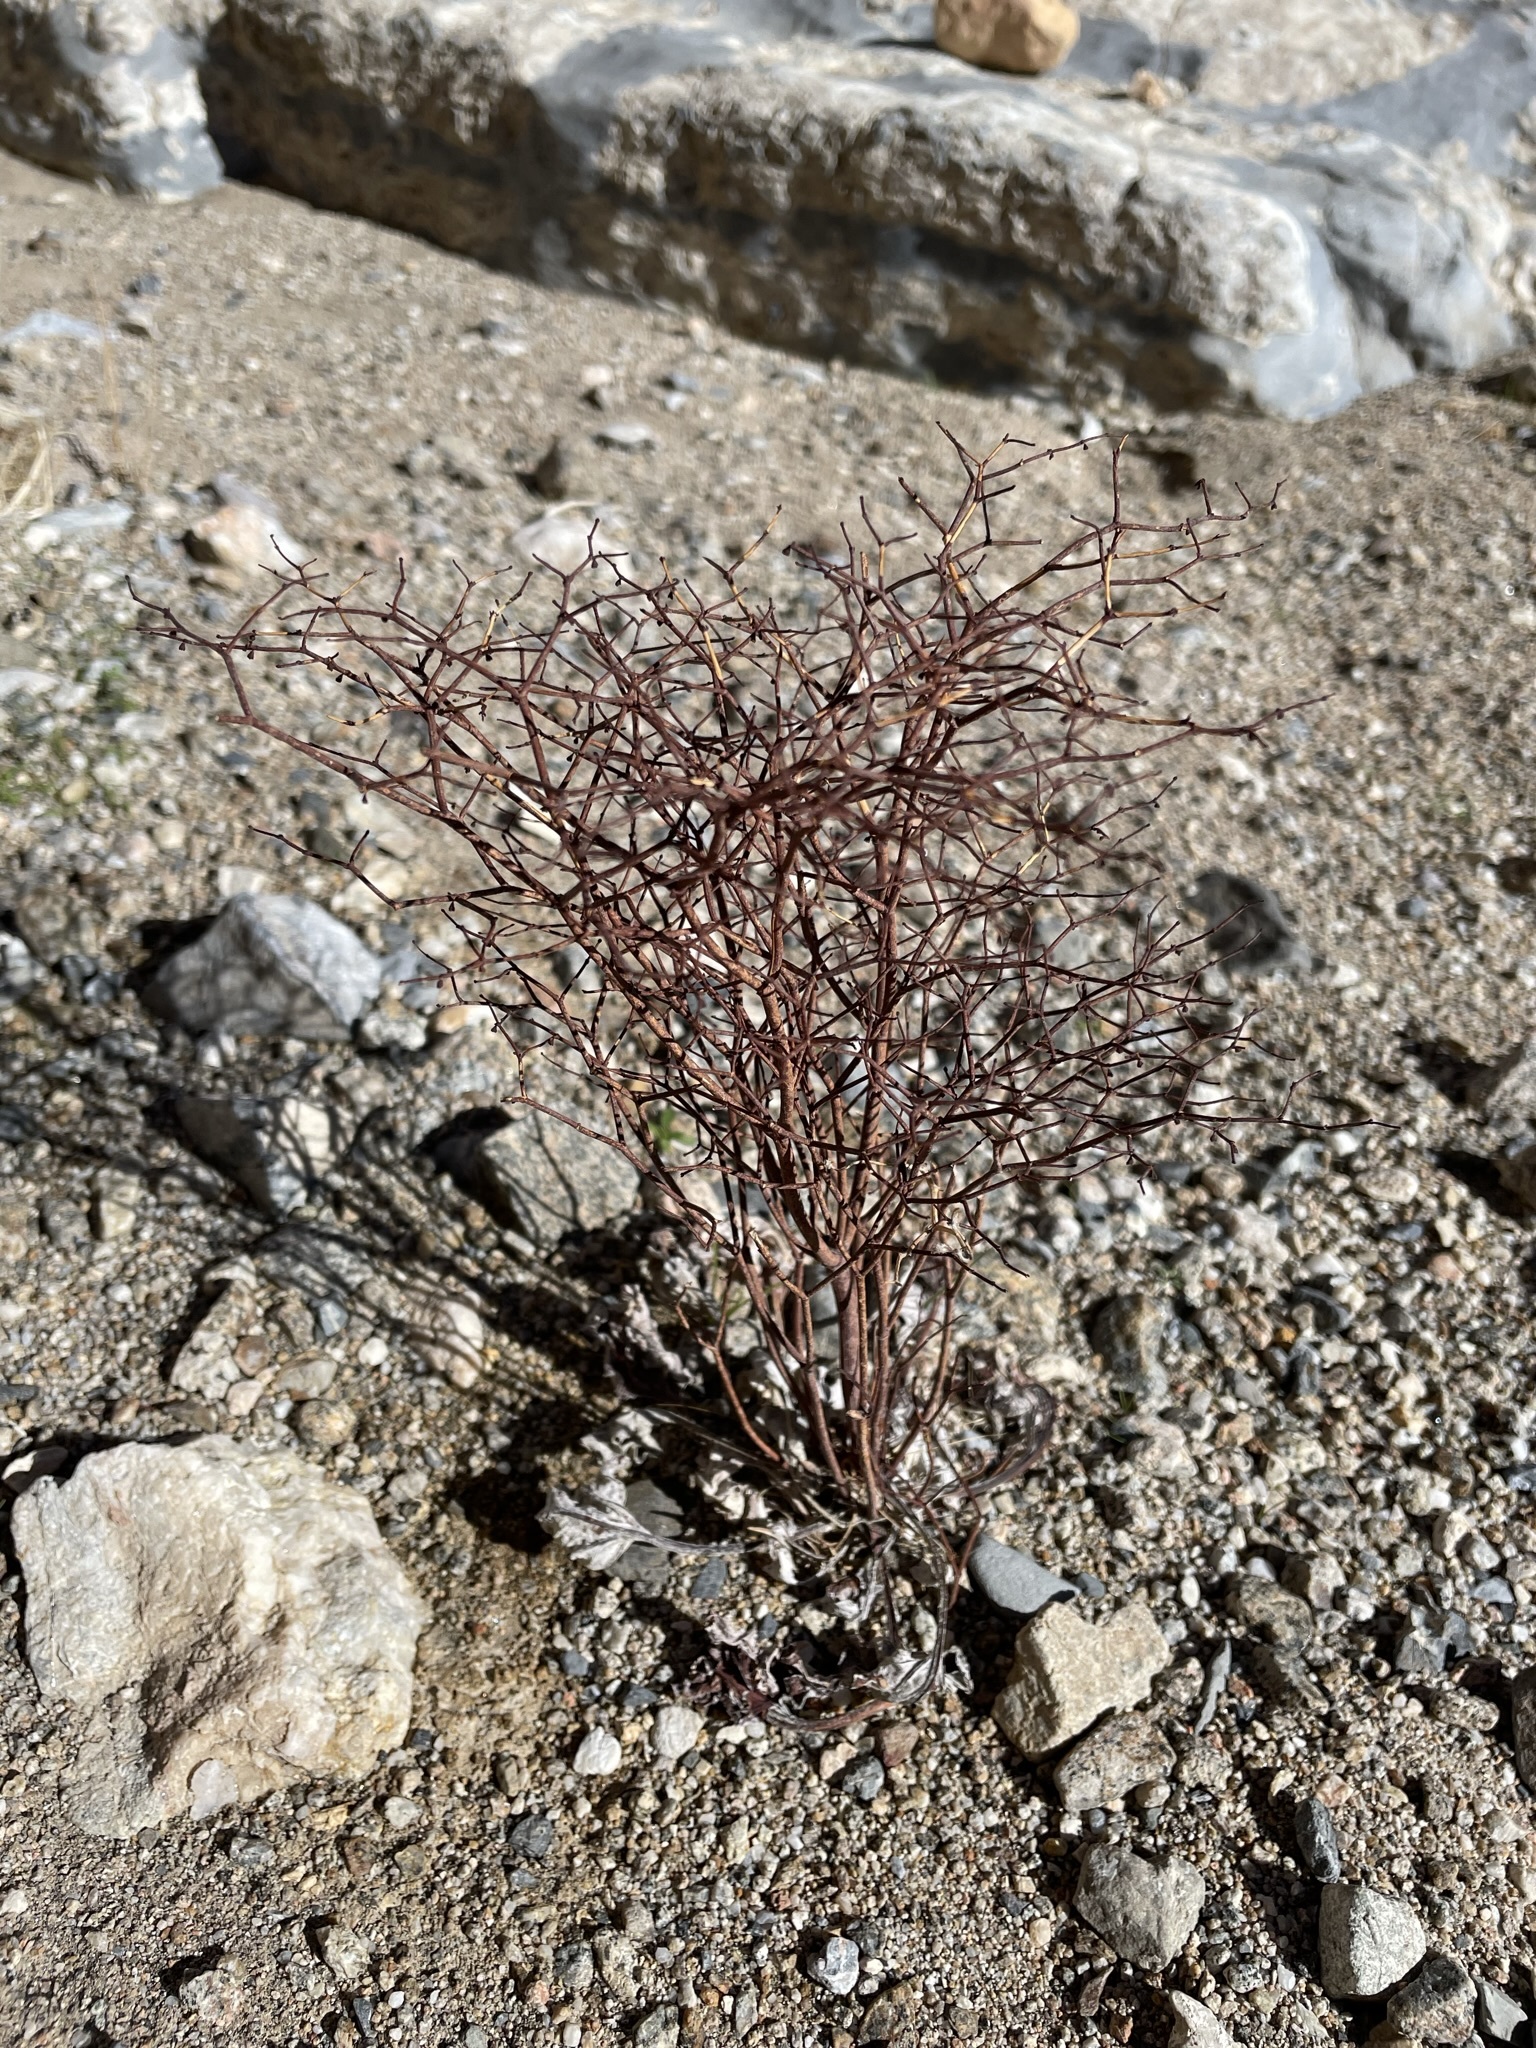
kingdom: Plantae
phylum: Tracheophyta
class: Magnoliopsida
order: Caryophyllales
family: Polygonaceae
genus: Eriogonum
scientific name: Eriogonum rixfordii
